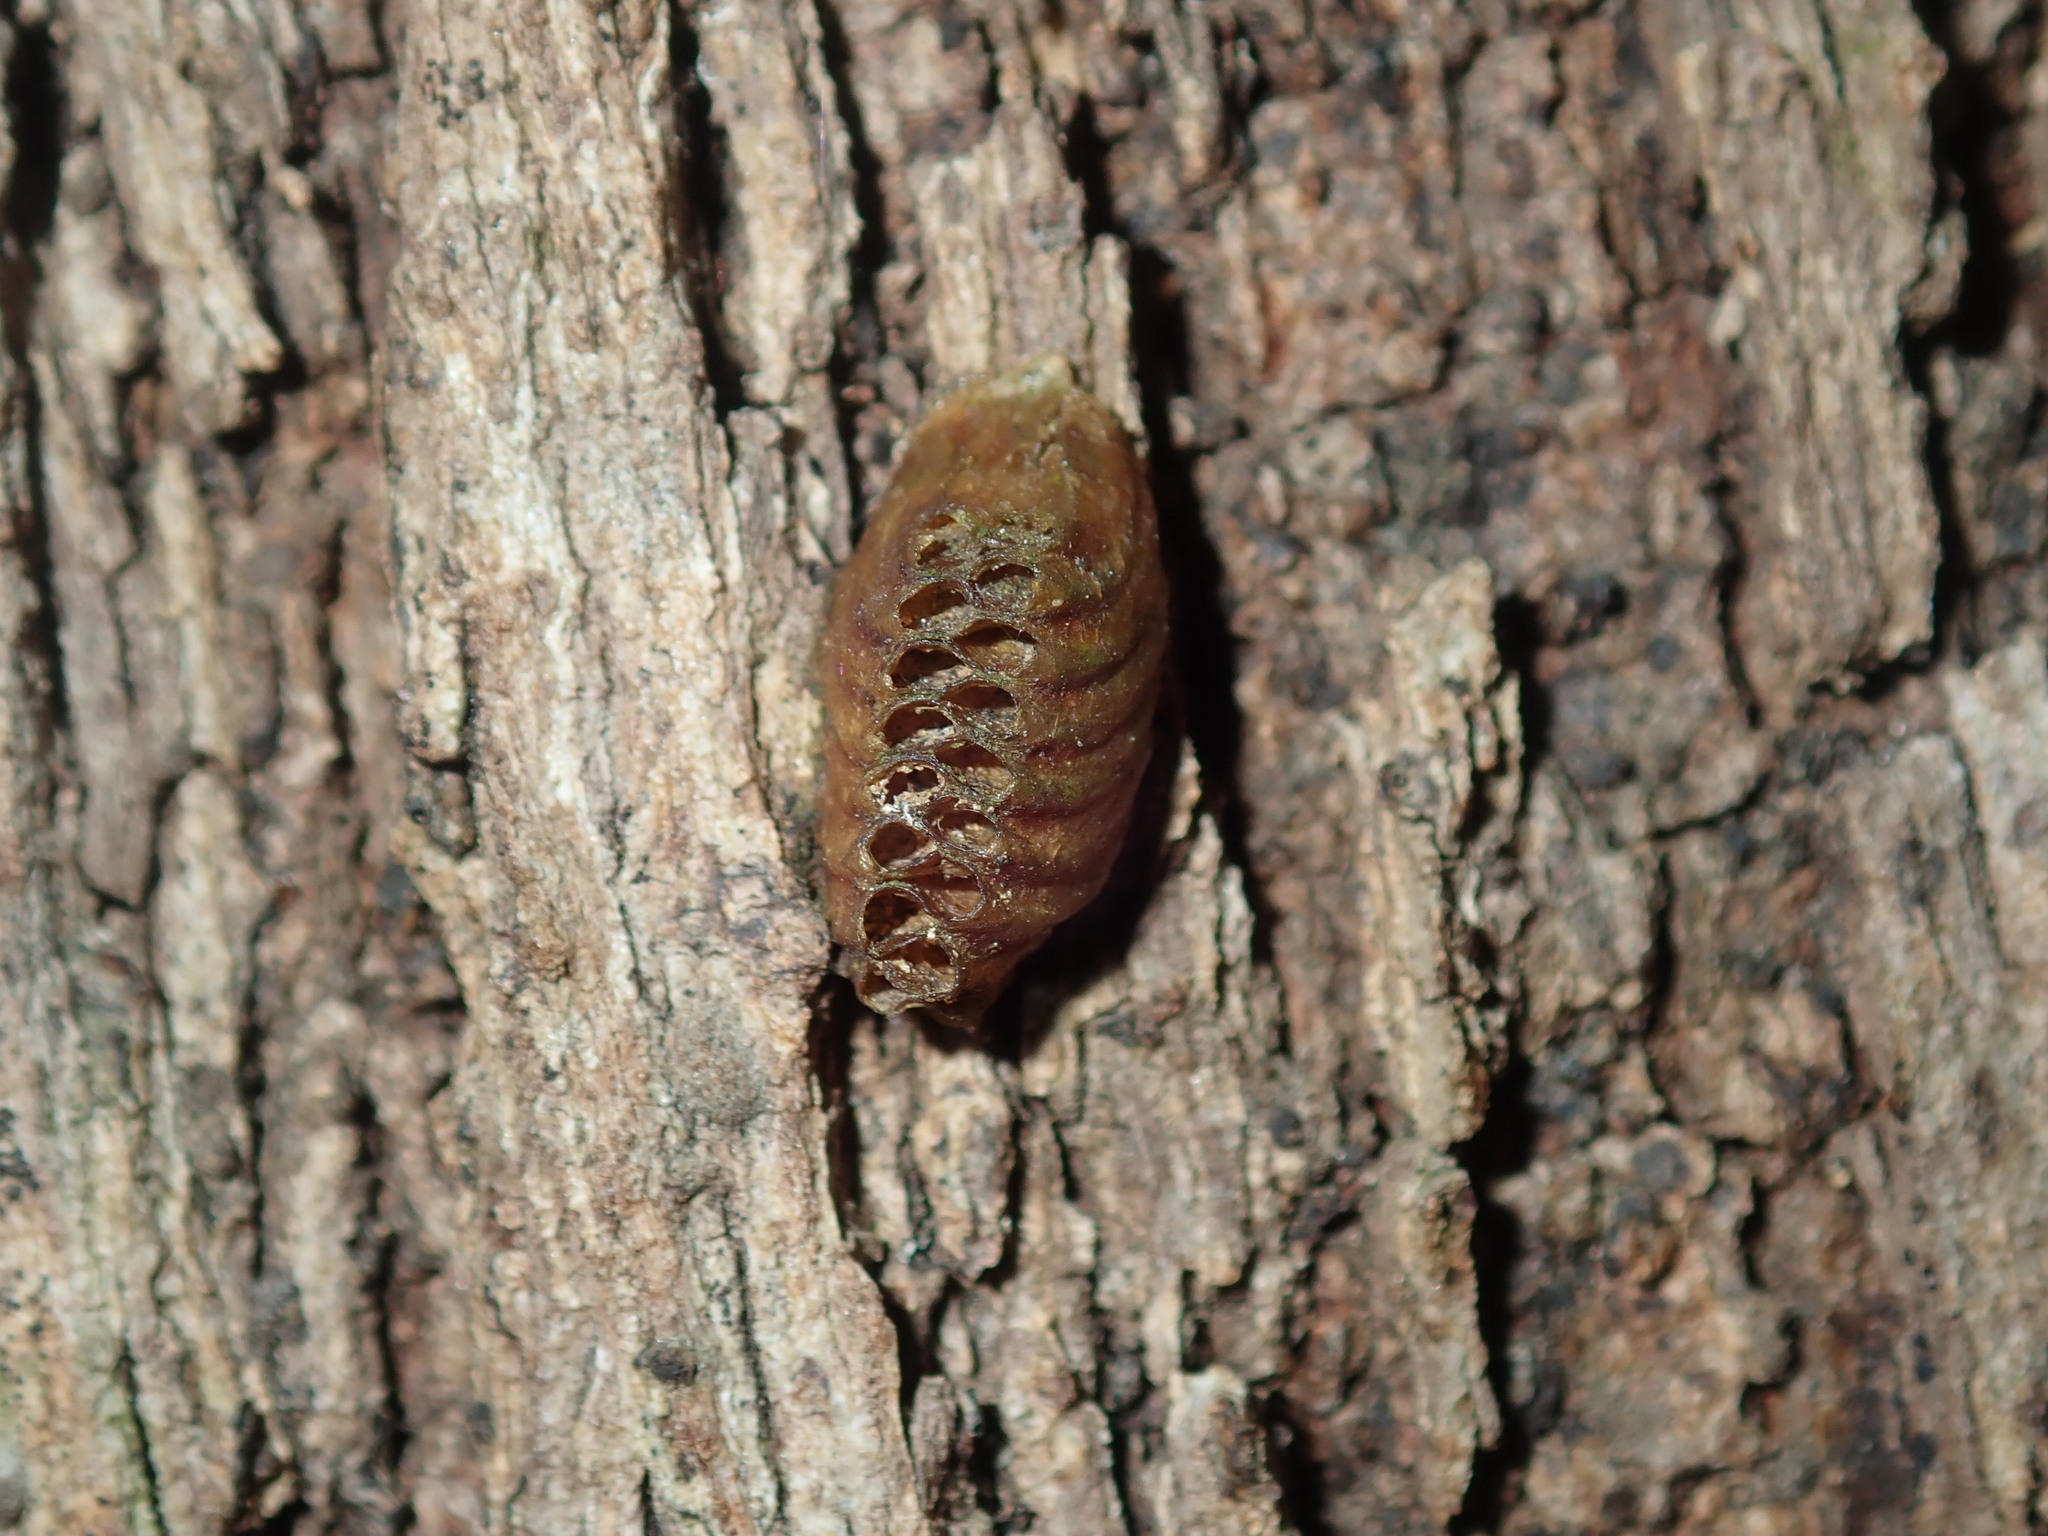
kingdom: Animalia
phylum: Arthropoda
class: Insecta
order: Mantodea
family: Mantidae
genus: Orthodera
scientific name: Orthodera ministralis
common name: Mantis
